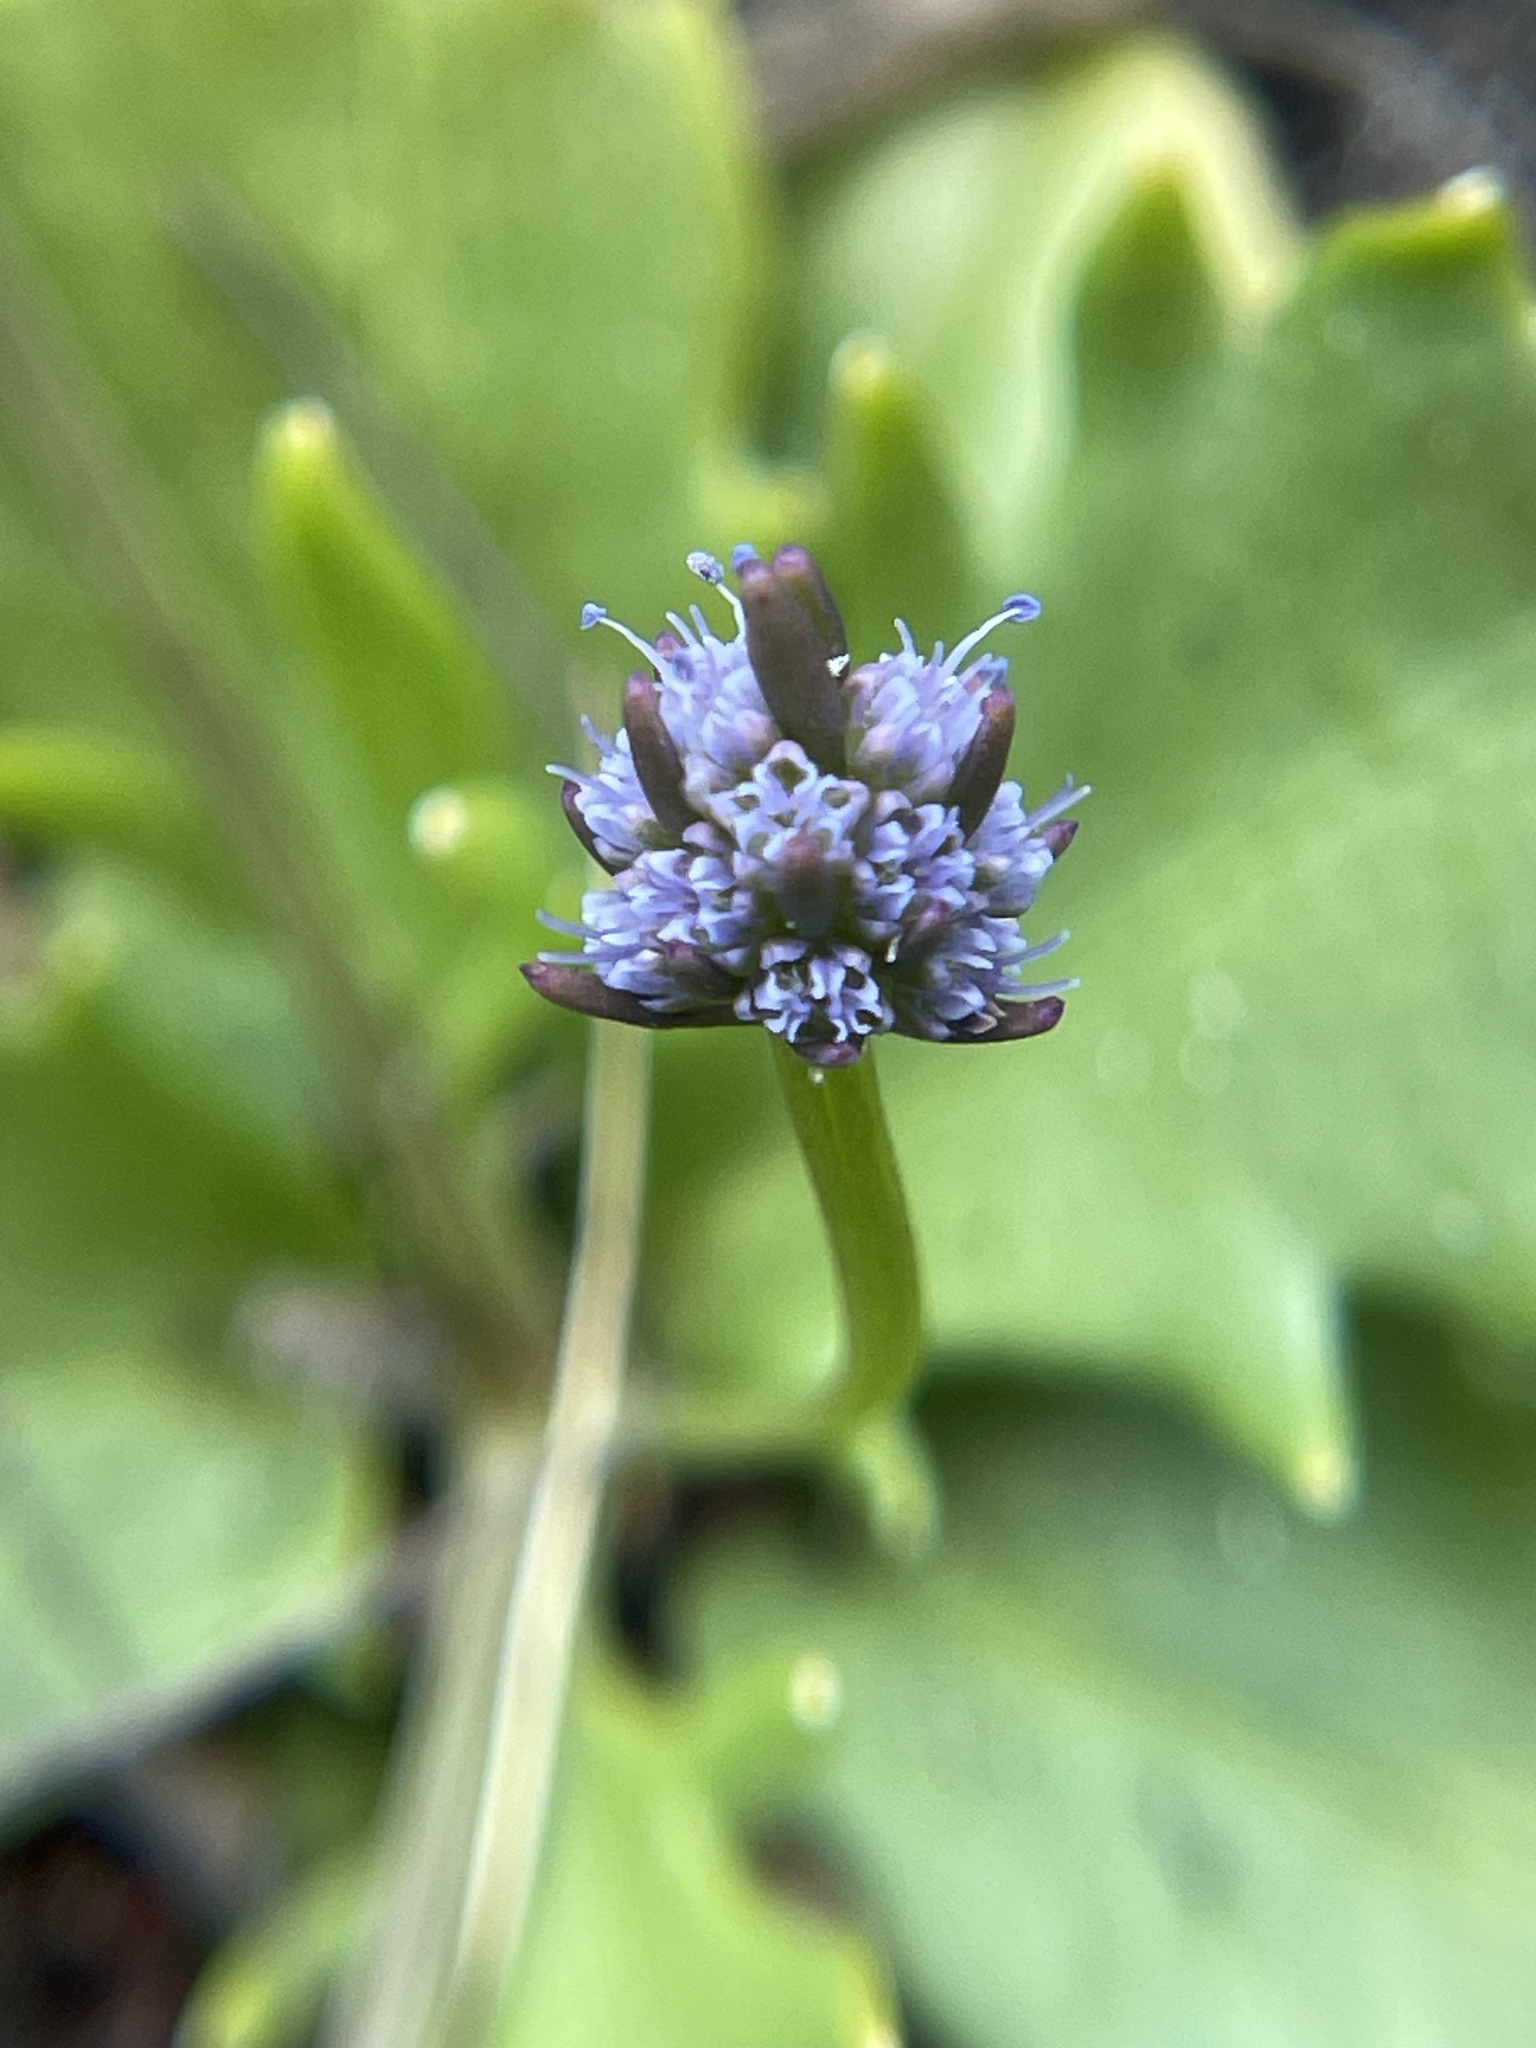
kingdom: Plantae
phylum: Tracheophyta
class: Magnoliopsida
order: Apiales
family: Apiaceae
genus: Eryngium
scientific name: Eryngium baldwinii
